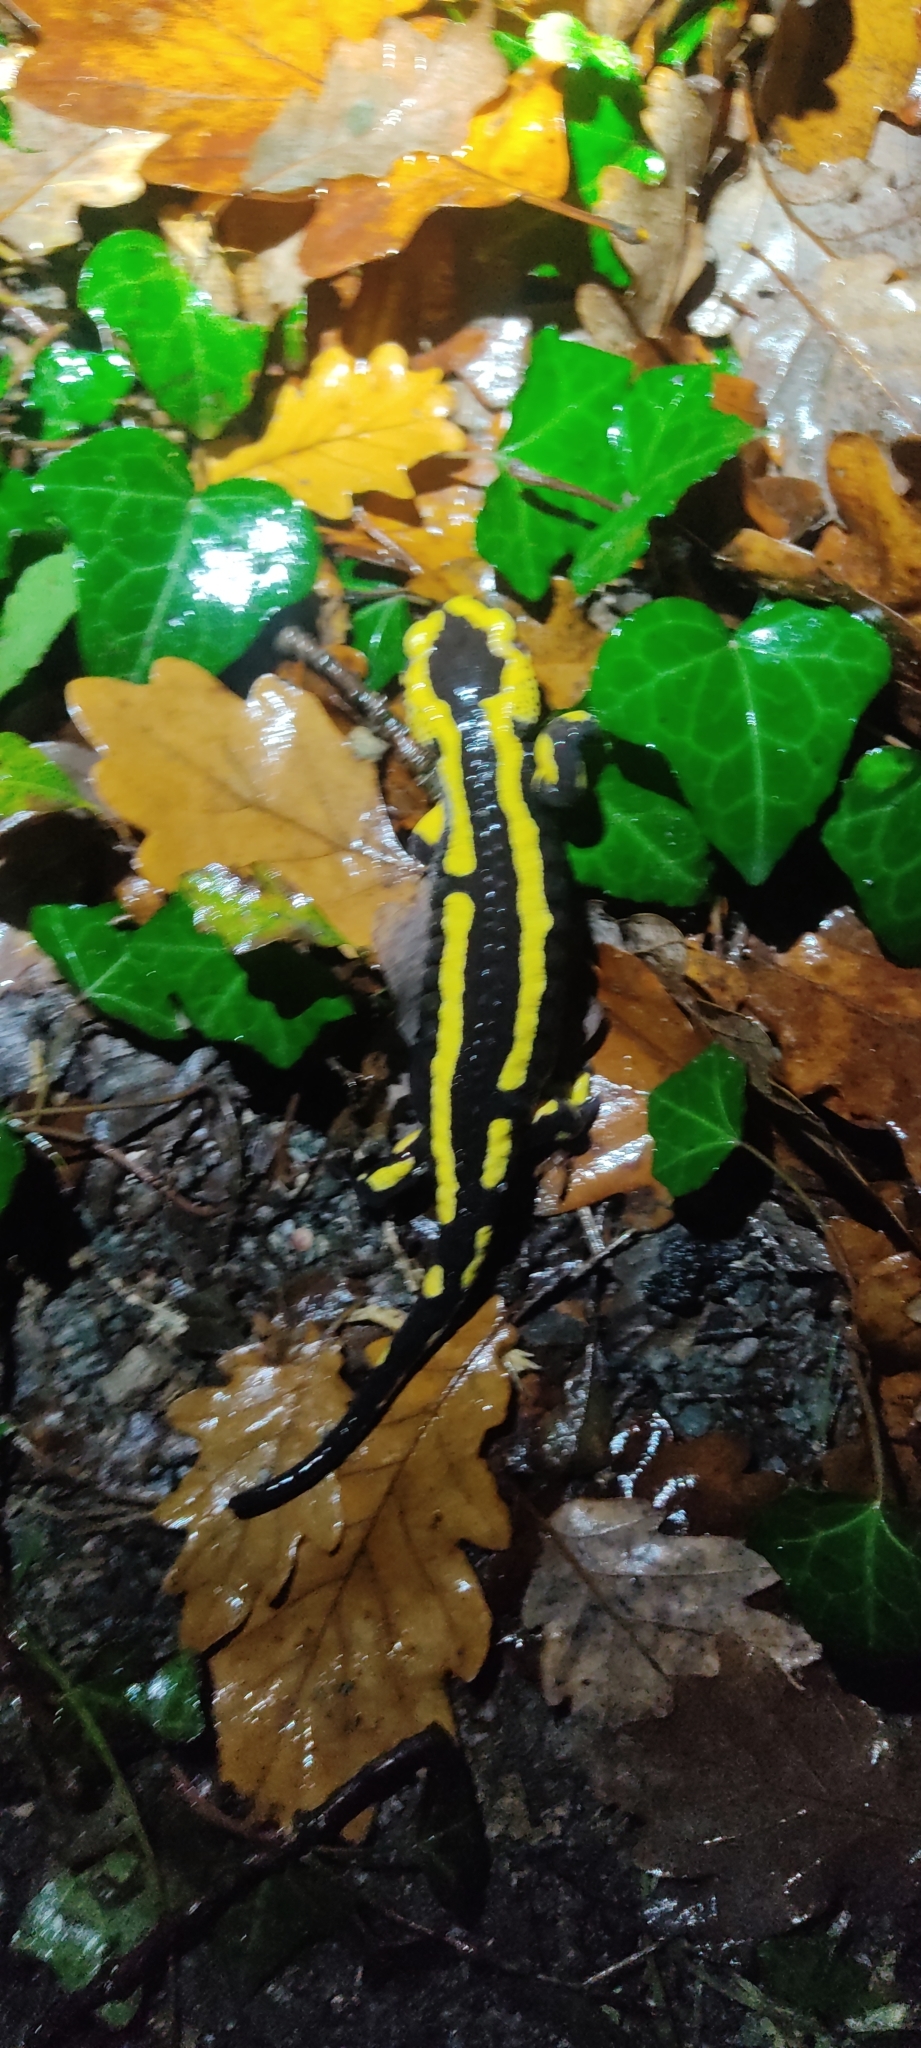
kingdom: Animalia
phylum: Chordata
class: Amphibia
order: Caudata
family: Salamandridae
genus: Salamandra
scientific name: Salamandra salamandra
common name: Fire salamander
